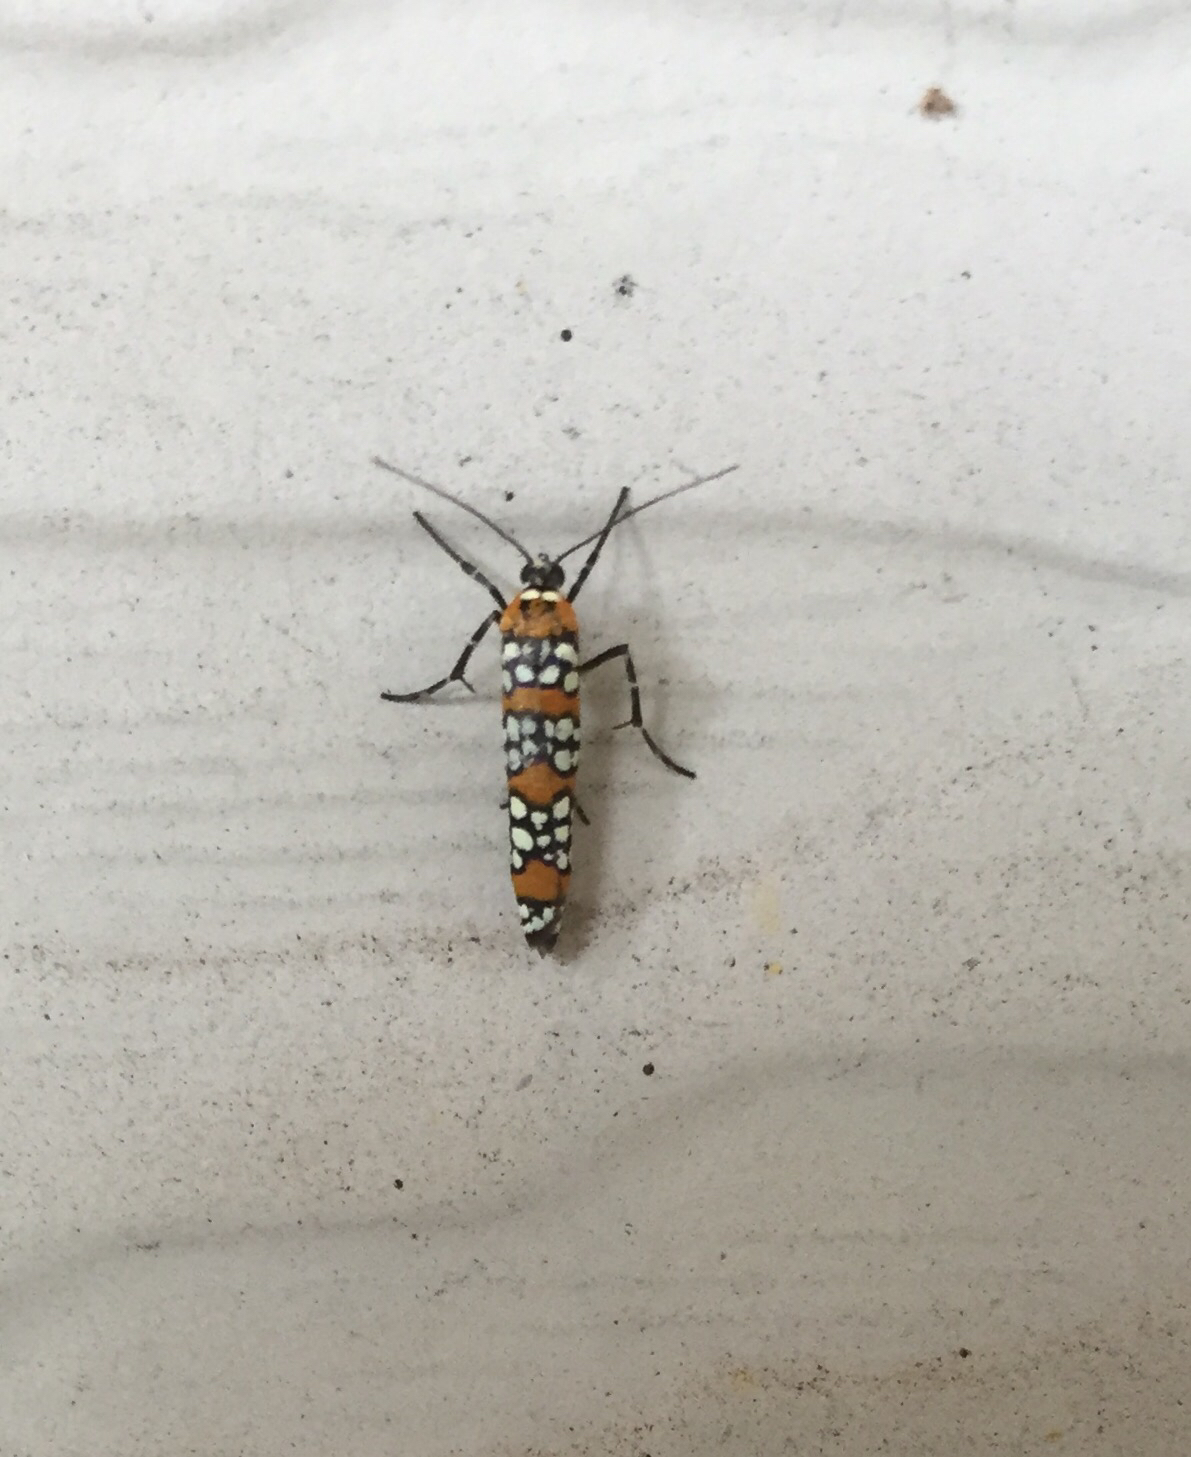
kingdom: Animalia
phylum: Arthropoda
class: Insecta
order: Lepidoptera
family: Attevidae
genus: Atteva
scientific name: Atteva punctella
